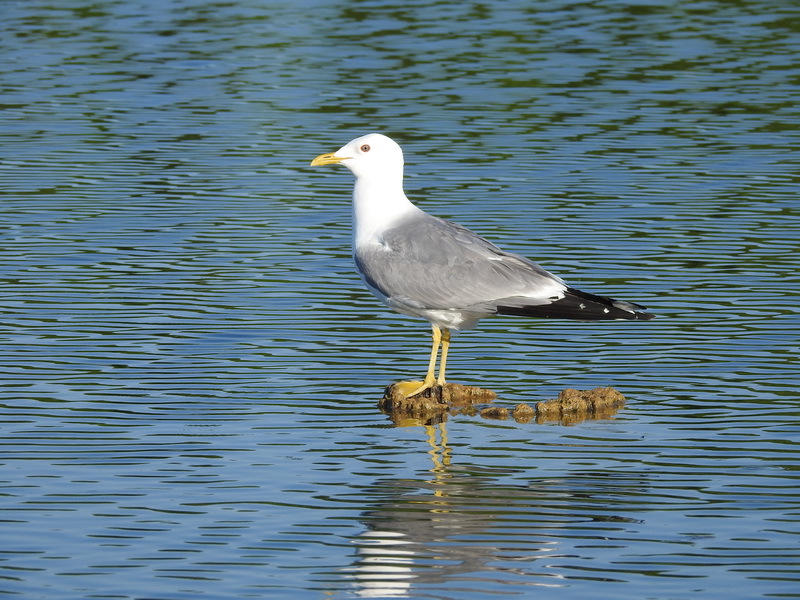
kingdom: Animalia
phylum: Chordata
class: Aves
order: Charadriiformes
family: Laridae
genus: Larus
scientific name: Larus canus
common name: Mew gull
